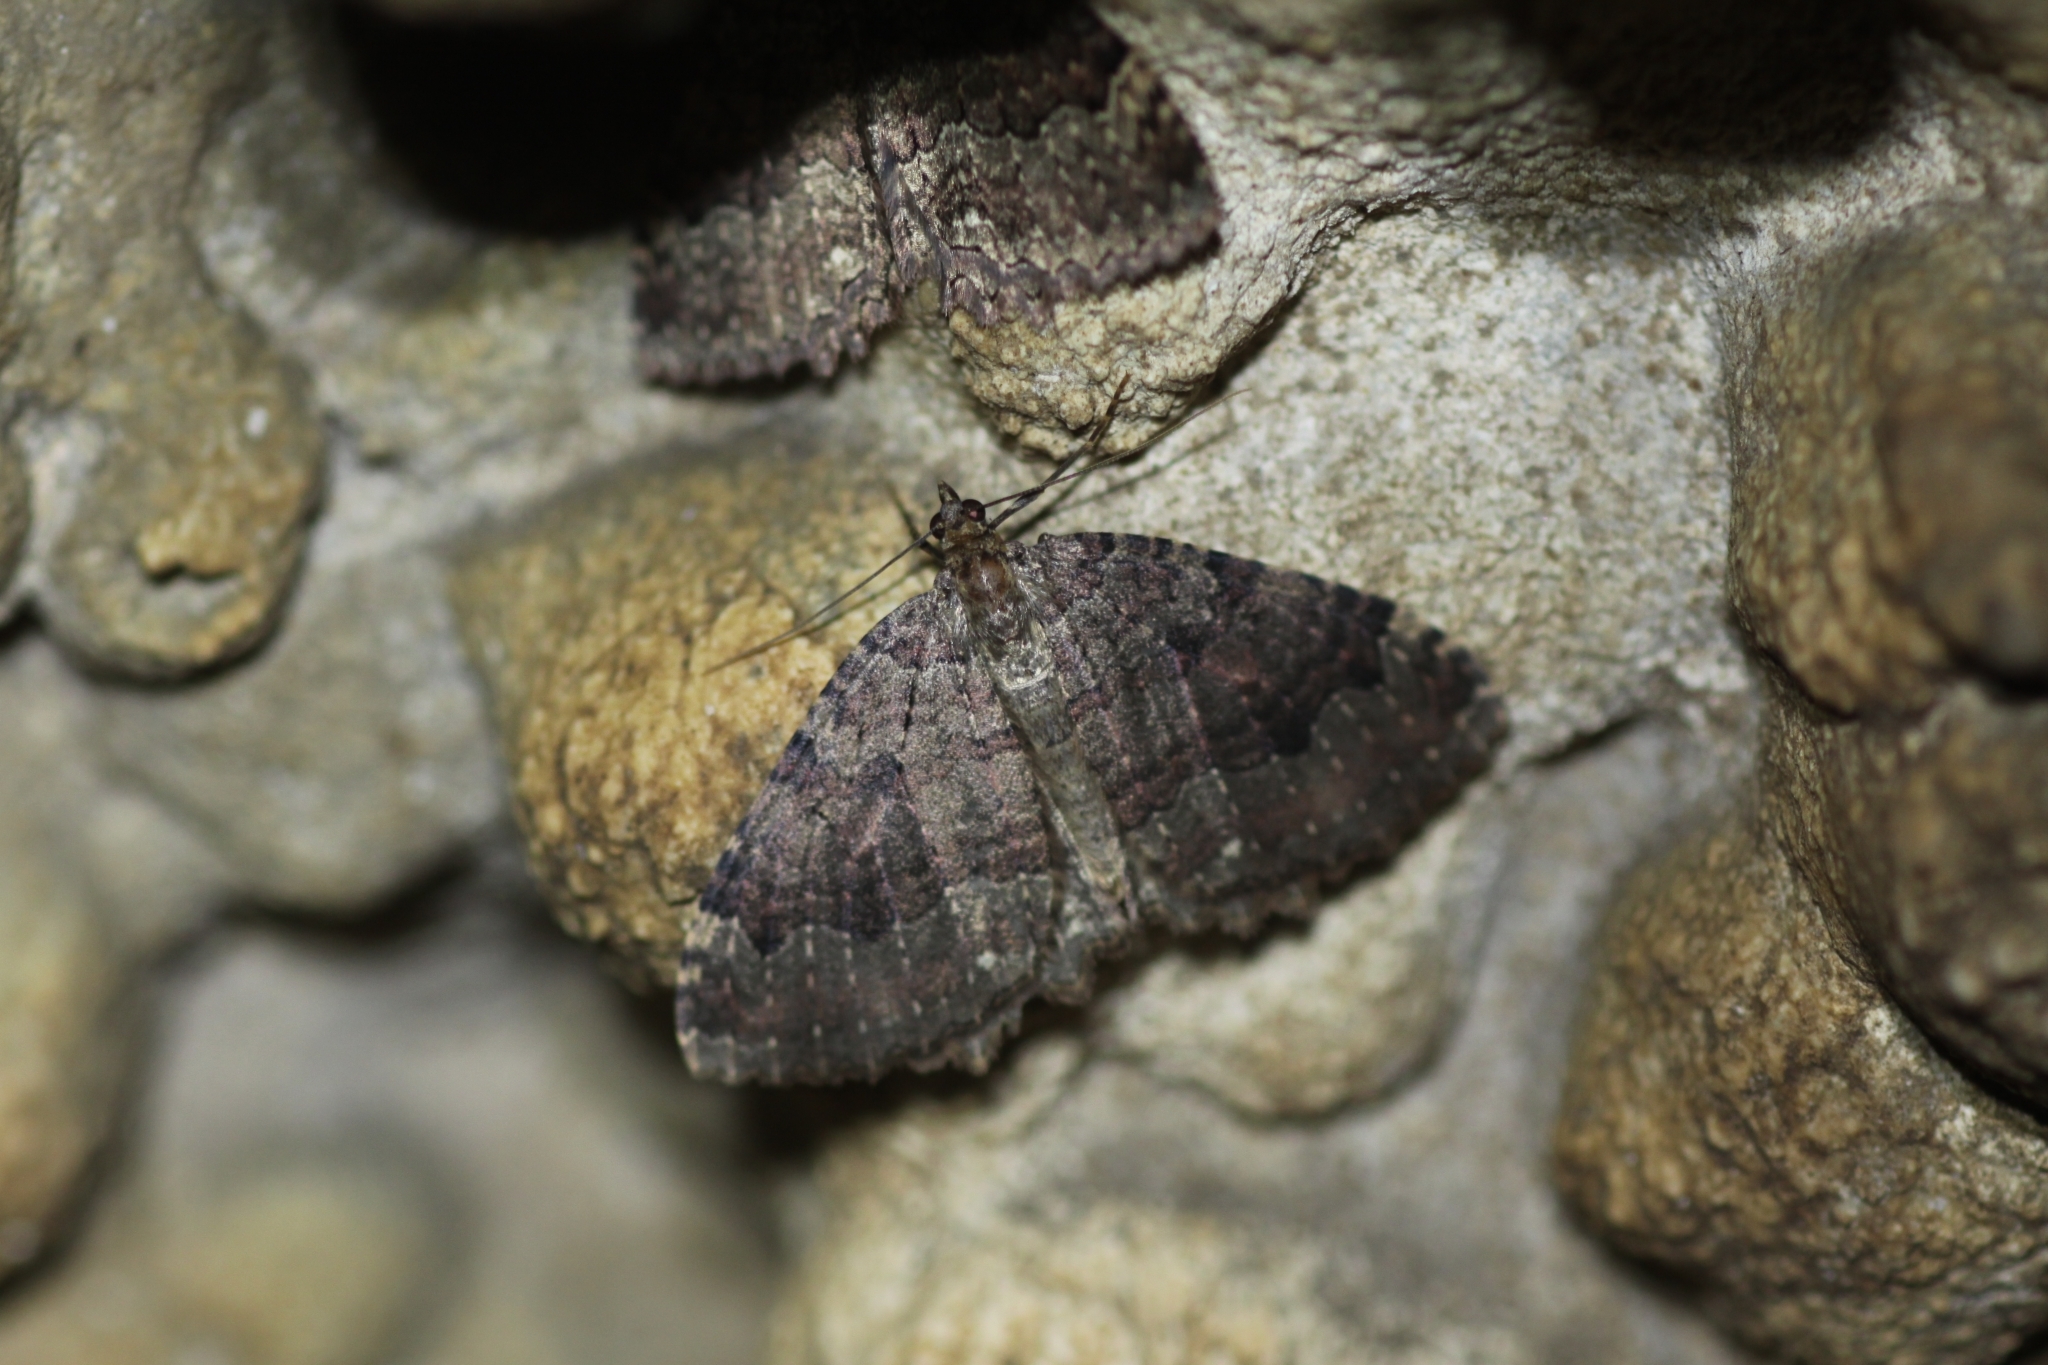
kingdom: Animalia
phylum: Arthropoda
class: Insecta
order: Lepidoptera
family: Geometridae
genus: Triphosa
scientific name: Triphosa dubitata
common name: Tissue
